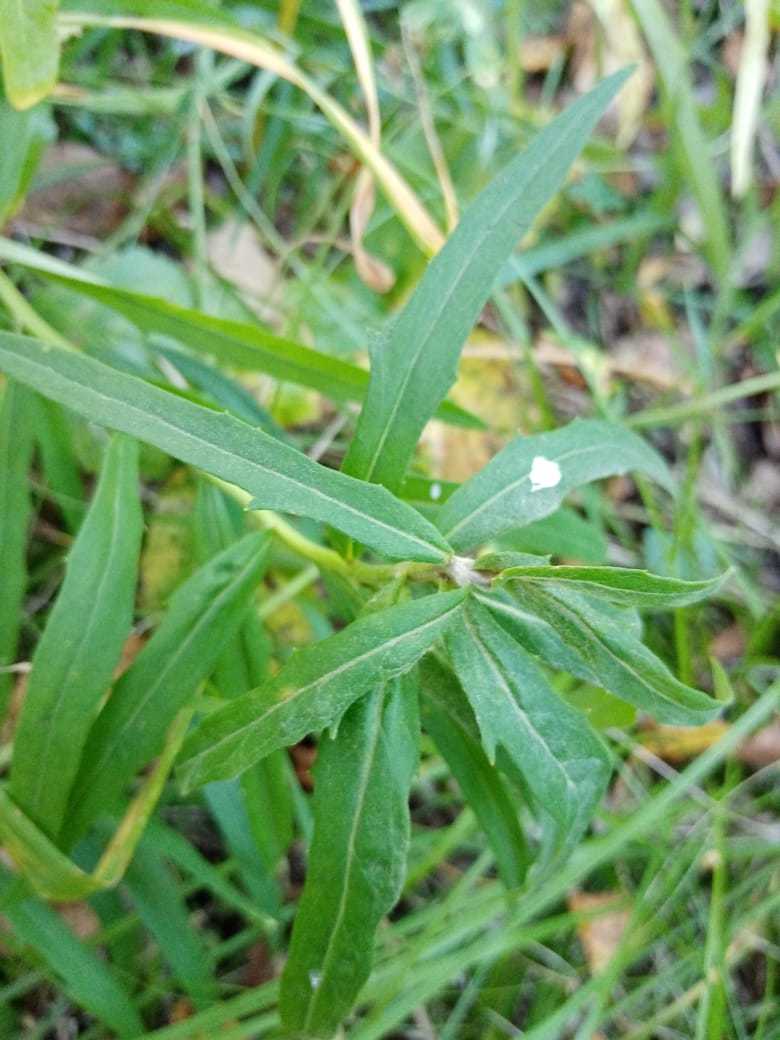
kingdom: Plantae
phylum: Tracheophyta
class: Magnoliopsida
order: Asterales
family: Asteraceae
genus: Hieracium
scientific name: Hieracium umbellatum
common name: Northern hawkweed
